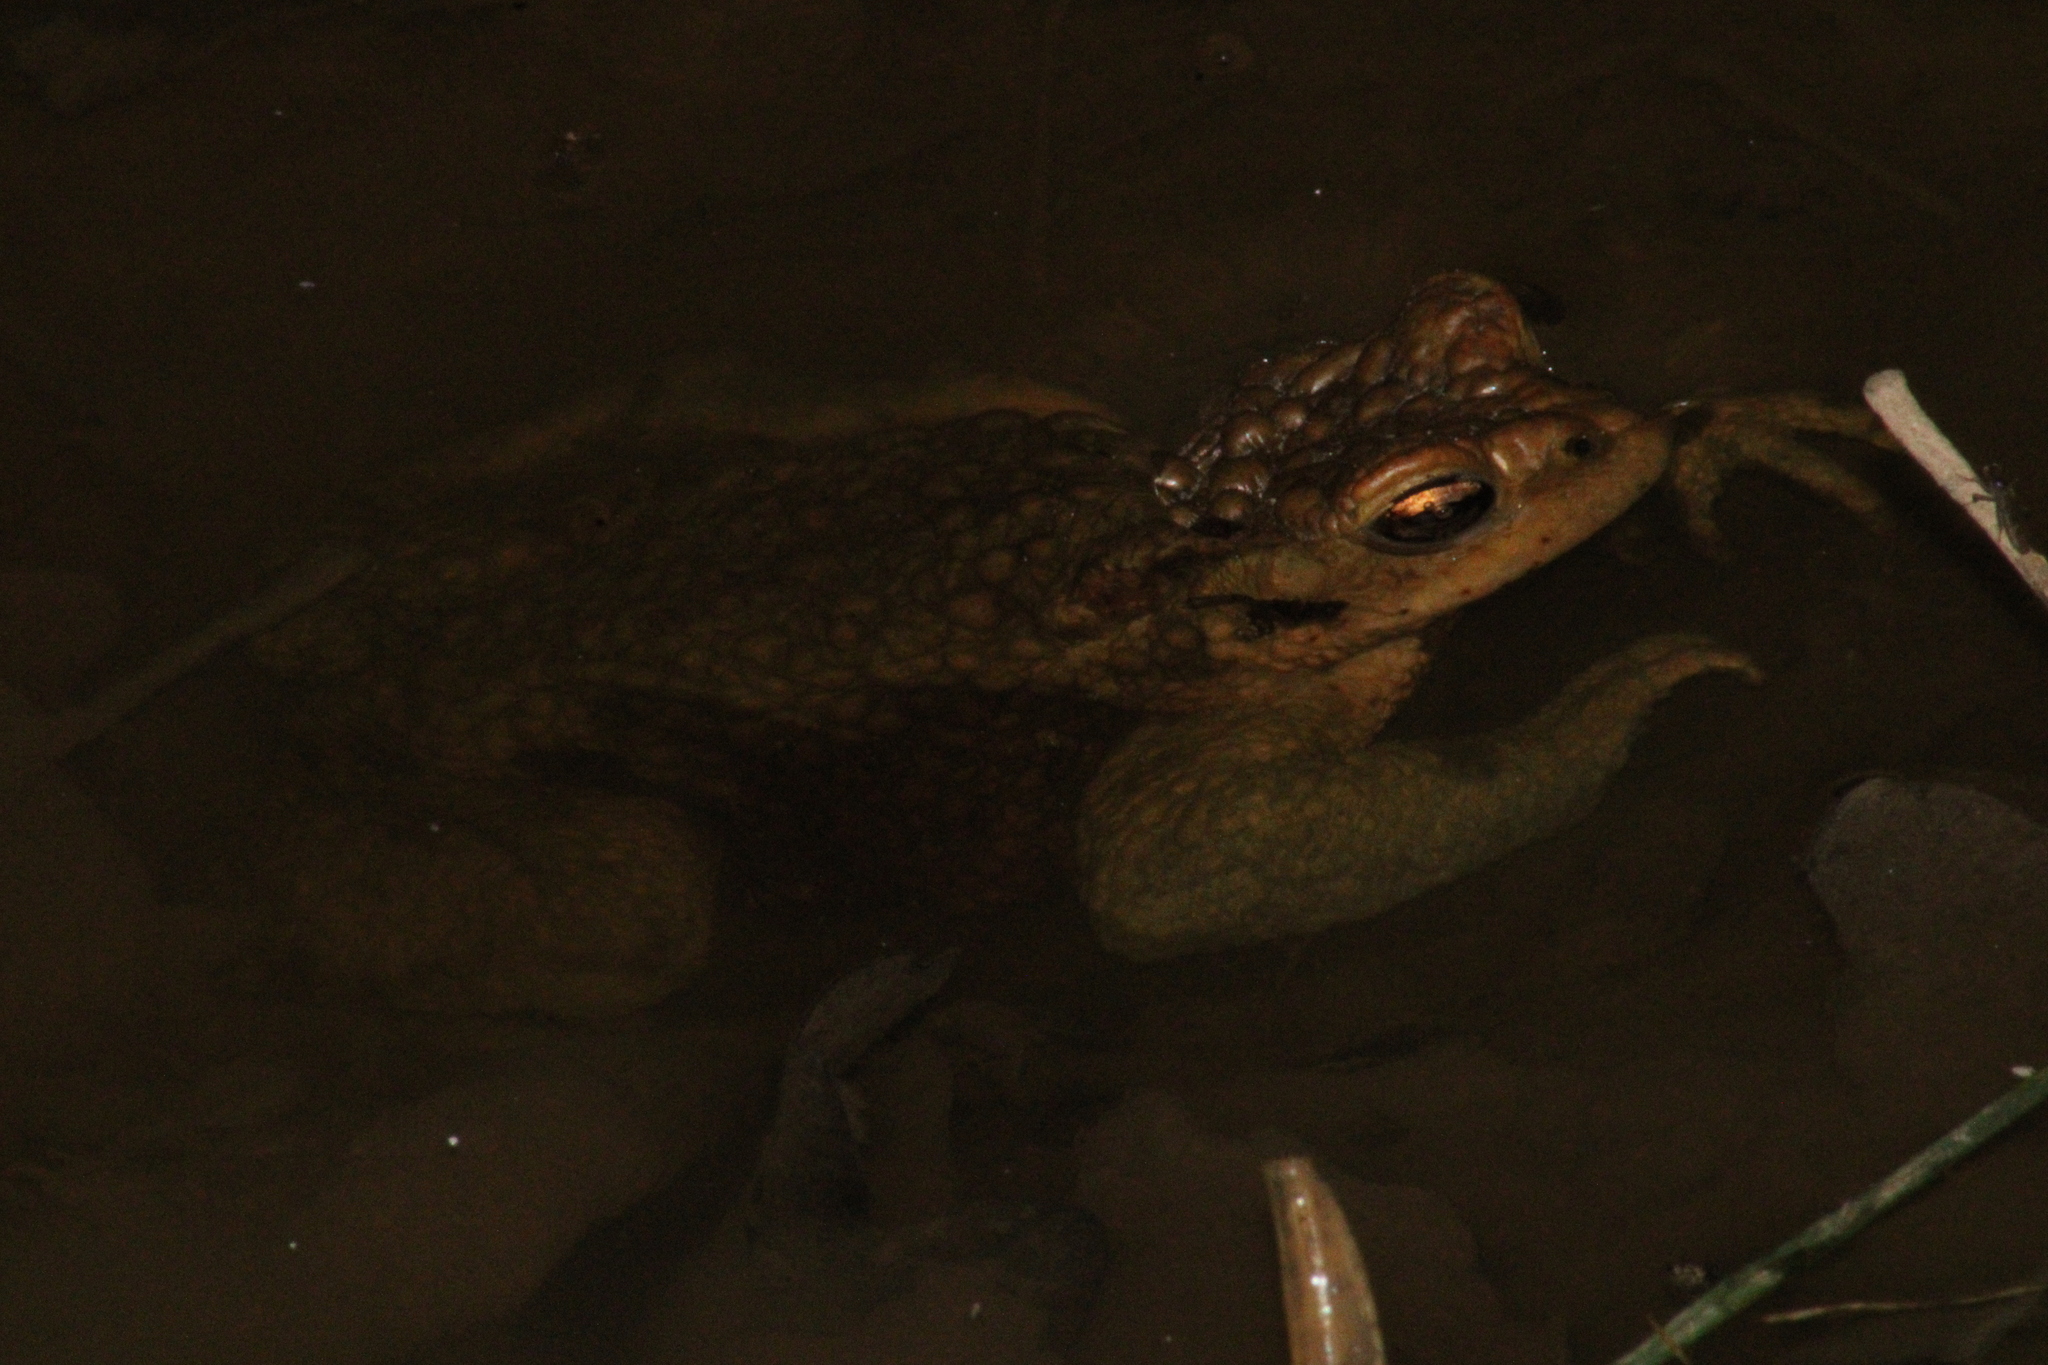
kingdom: Animalia
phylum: Chordata
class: Amphibia
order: Anura
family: Bufonidae
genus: Bufo
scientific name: Bufo bufo
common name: Common toad
